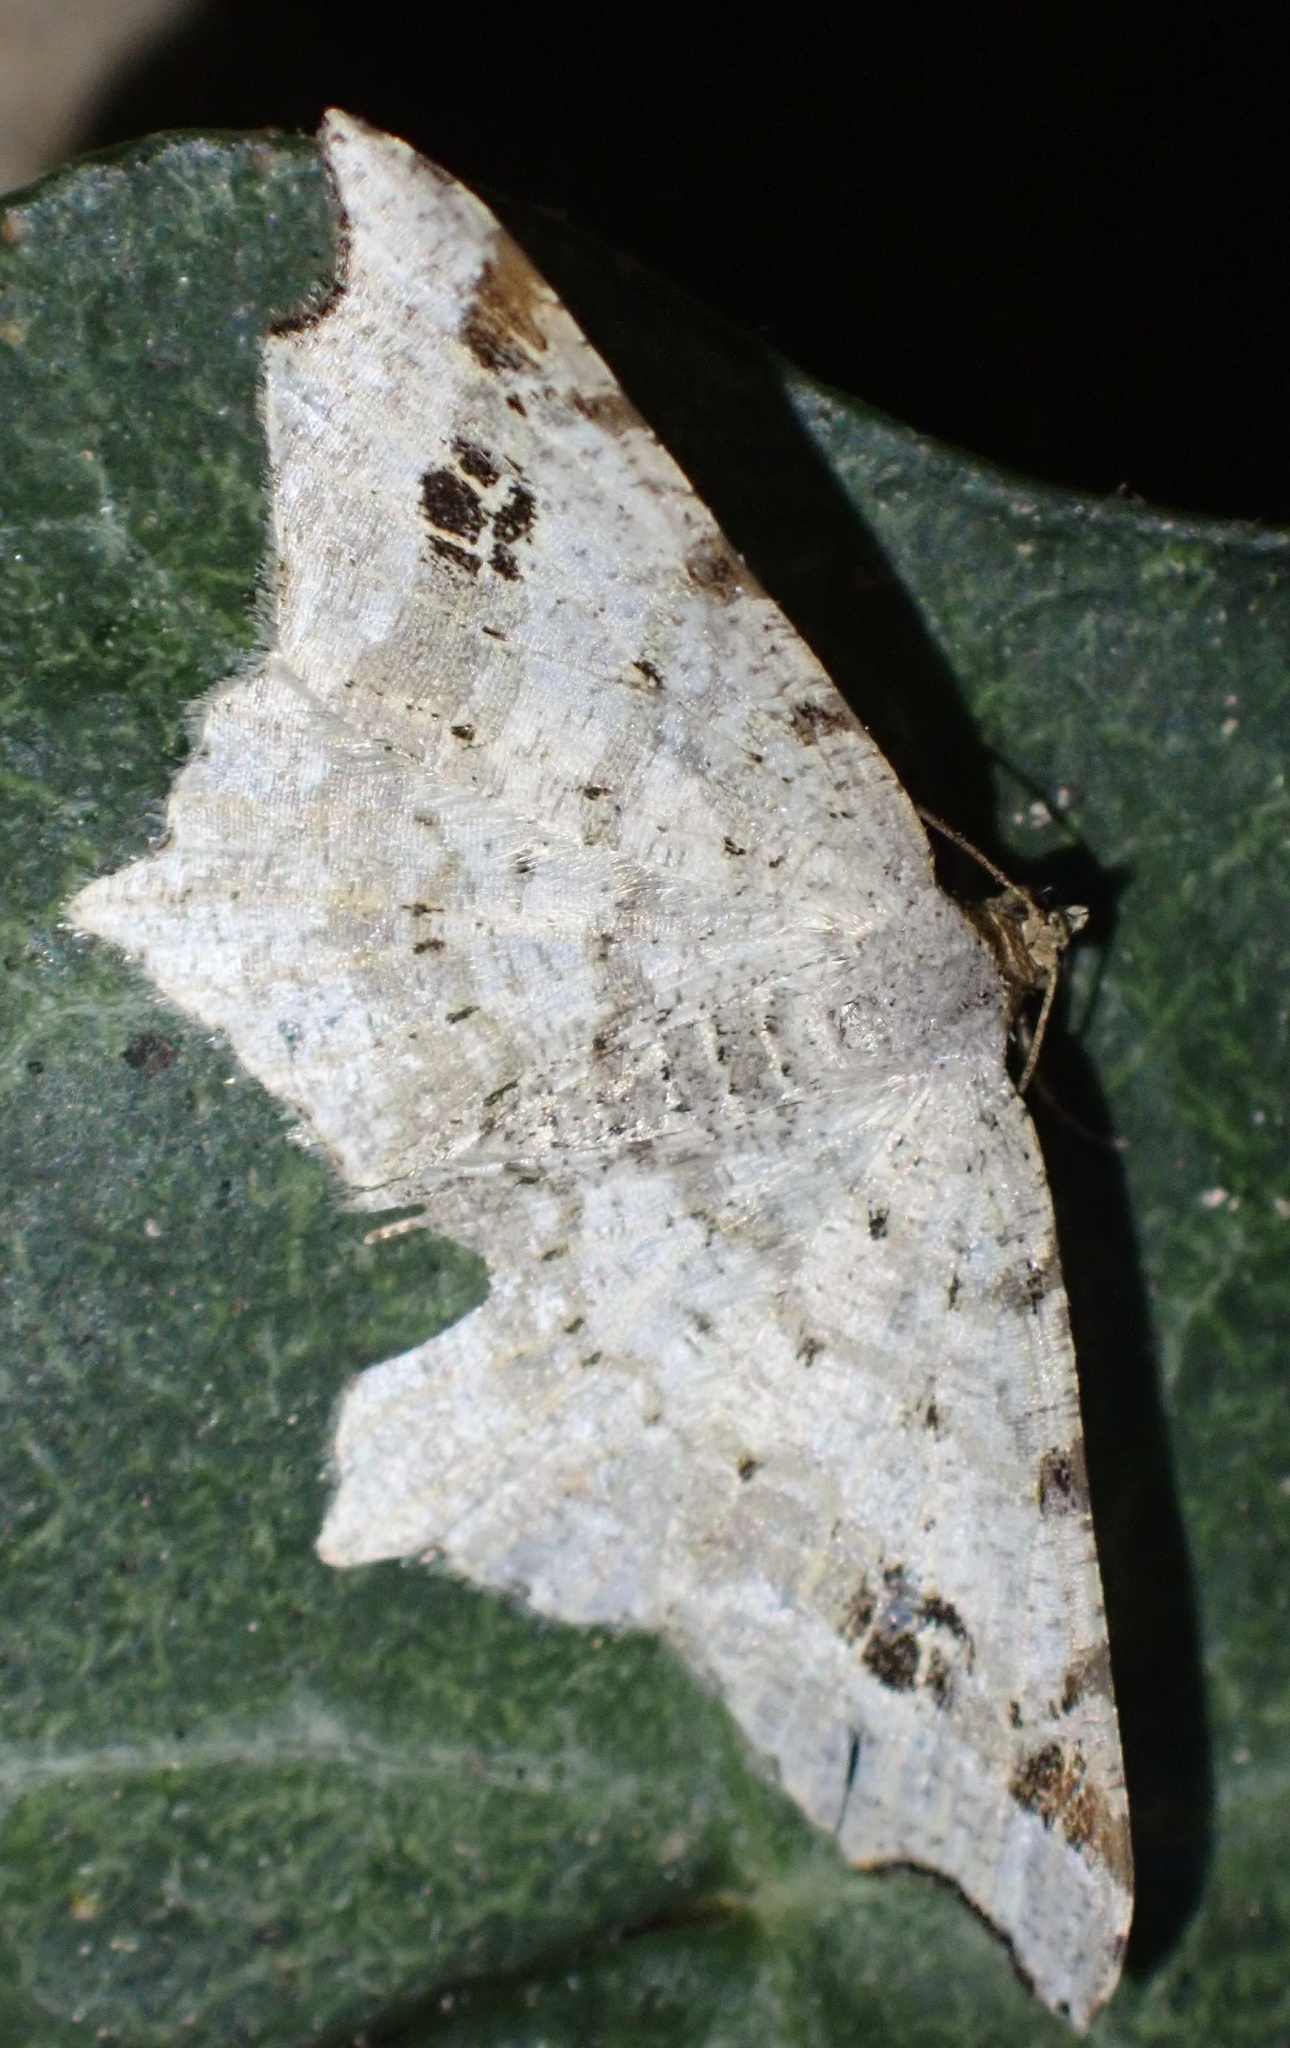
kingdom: Animalia
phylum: Arthropoda
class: Insecta
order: Lepidoptera
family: Geometridae
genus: Macaria
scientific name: Macaria alternata
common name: Sharp-angled peacock
